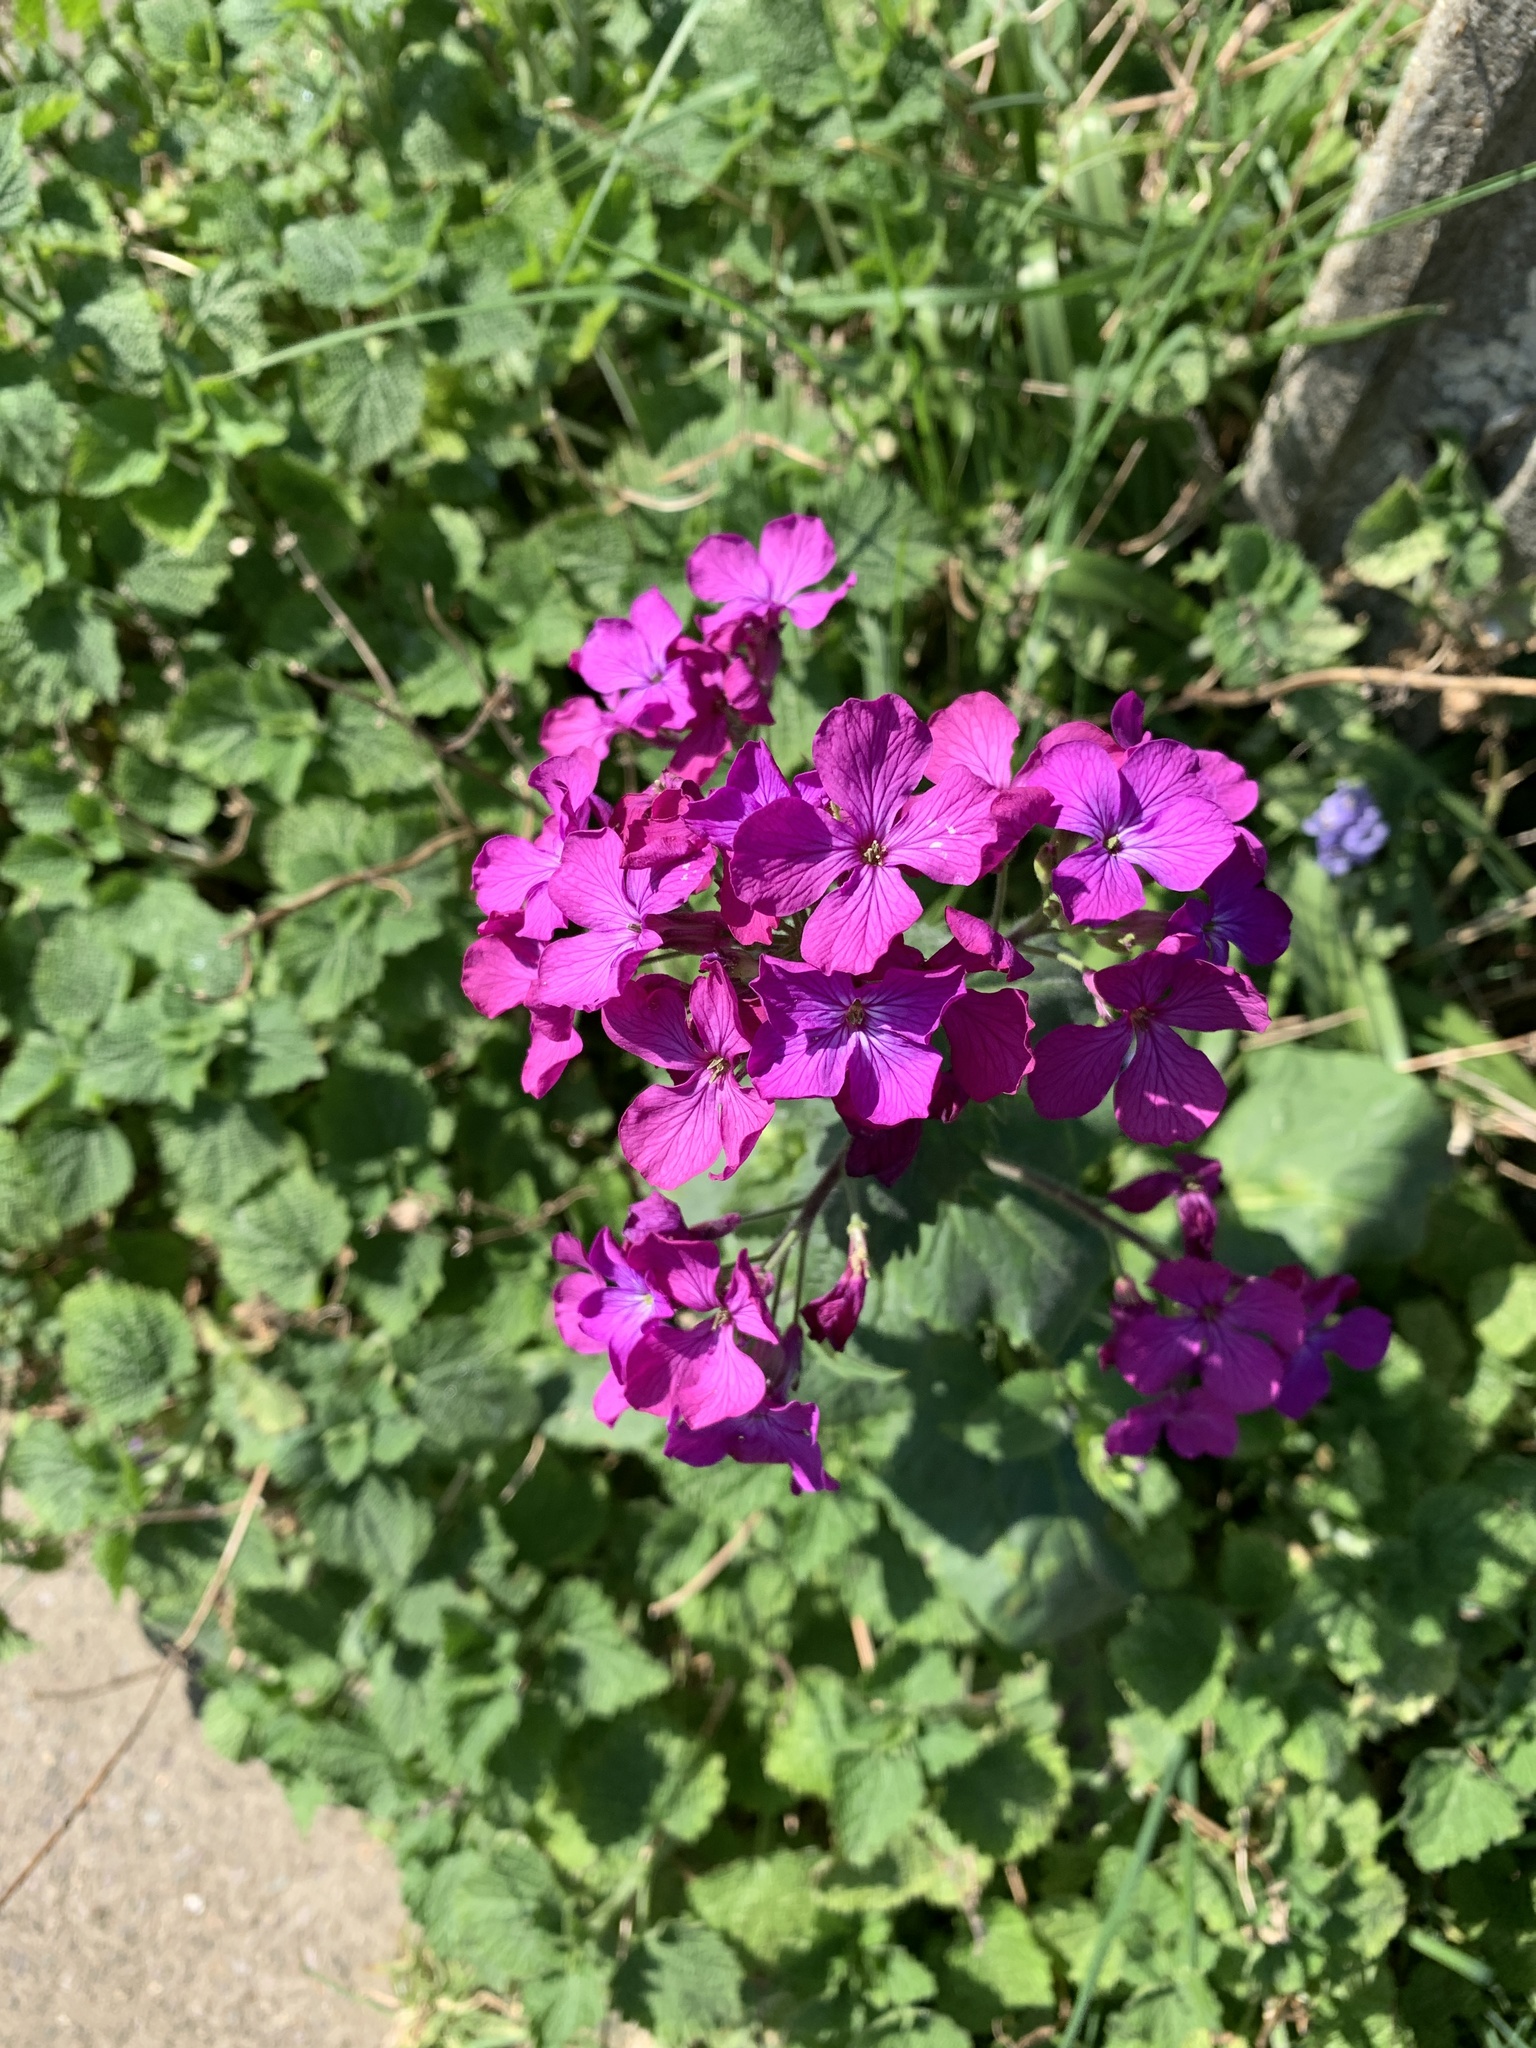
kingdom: Plantae
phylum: Tracheophyta
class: Magnoliopsida
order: Brassicales
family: Brassicaceae
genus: Lunaria
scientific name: Lunaria annua
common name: Honesty
